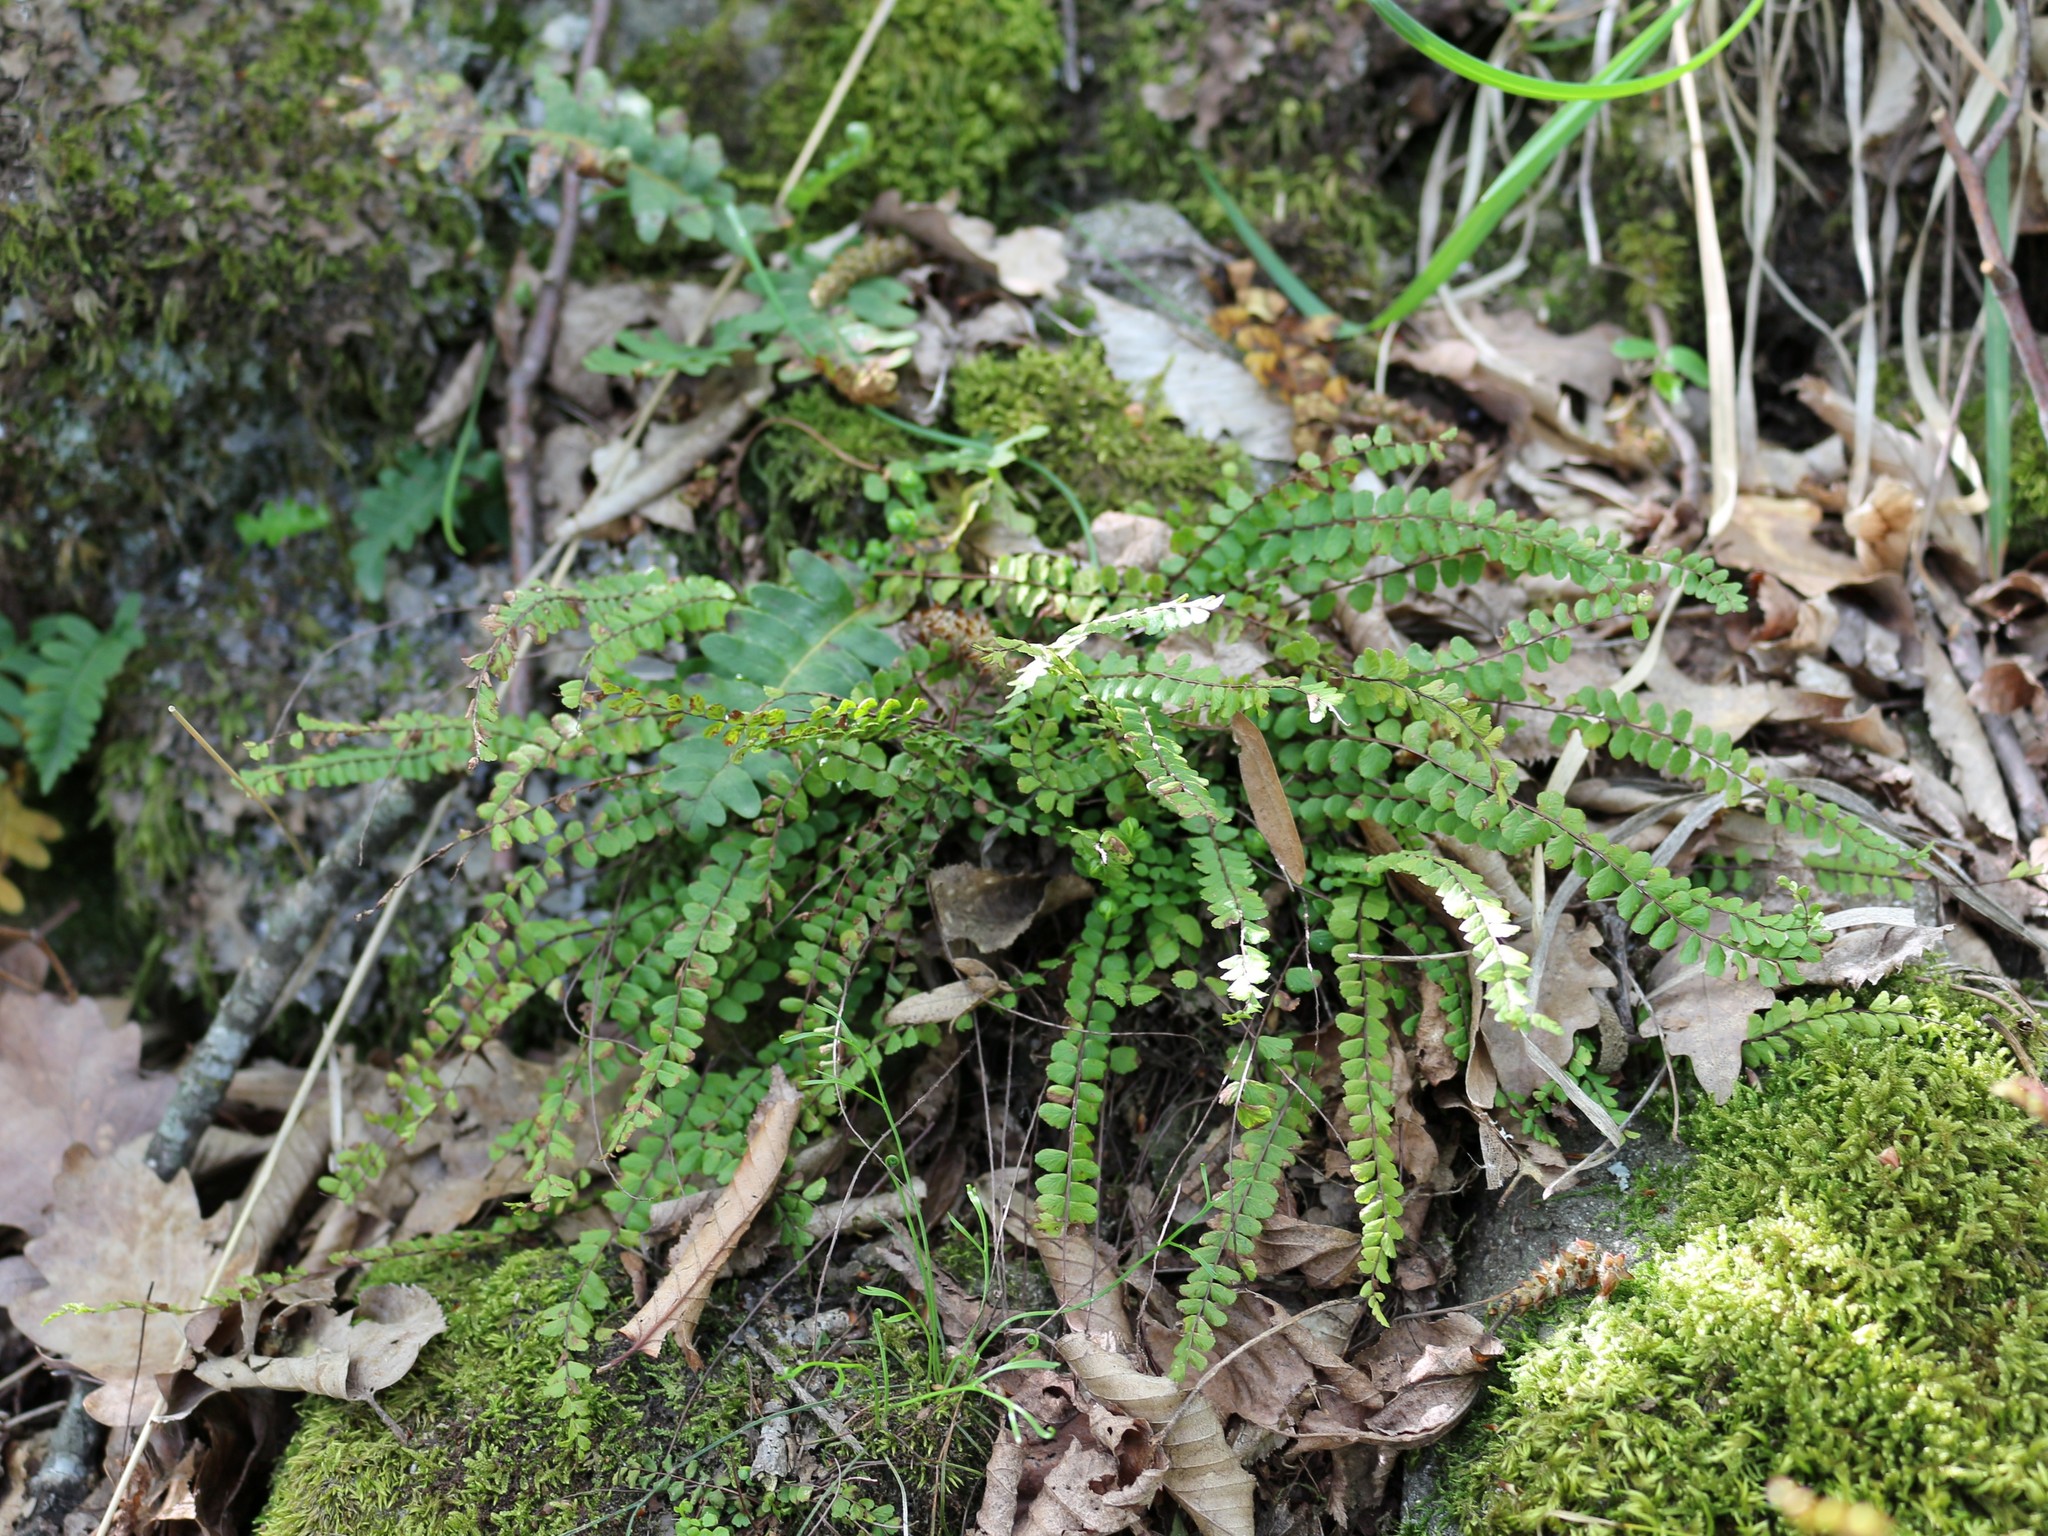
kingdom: Plantae
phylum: Tracheophyta
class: Polypodiopsida
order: Polypodiales
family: Aspleniaceae
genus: Asplenium
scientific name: Asplenium trichomanes
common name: Maidenhair spleenwort
